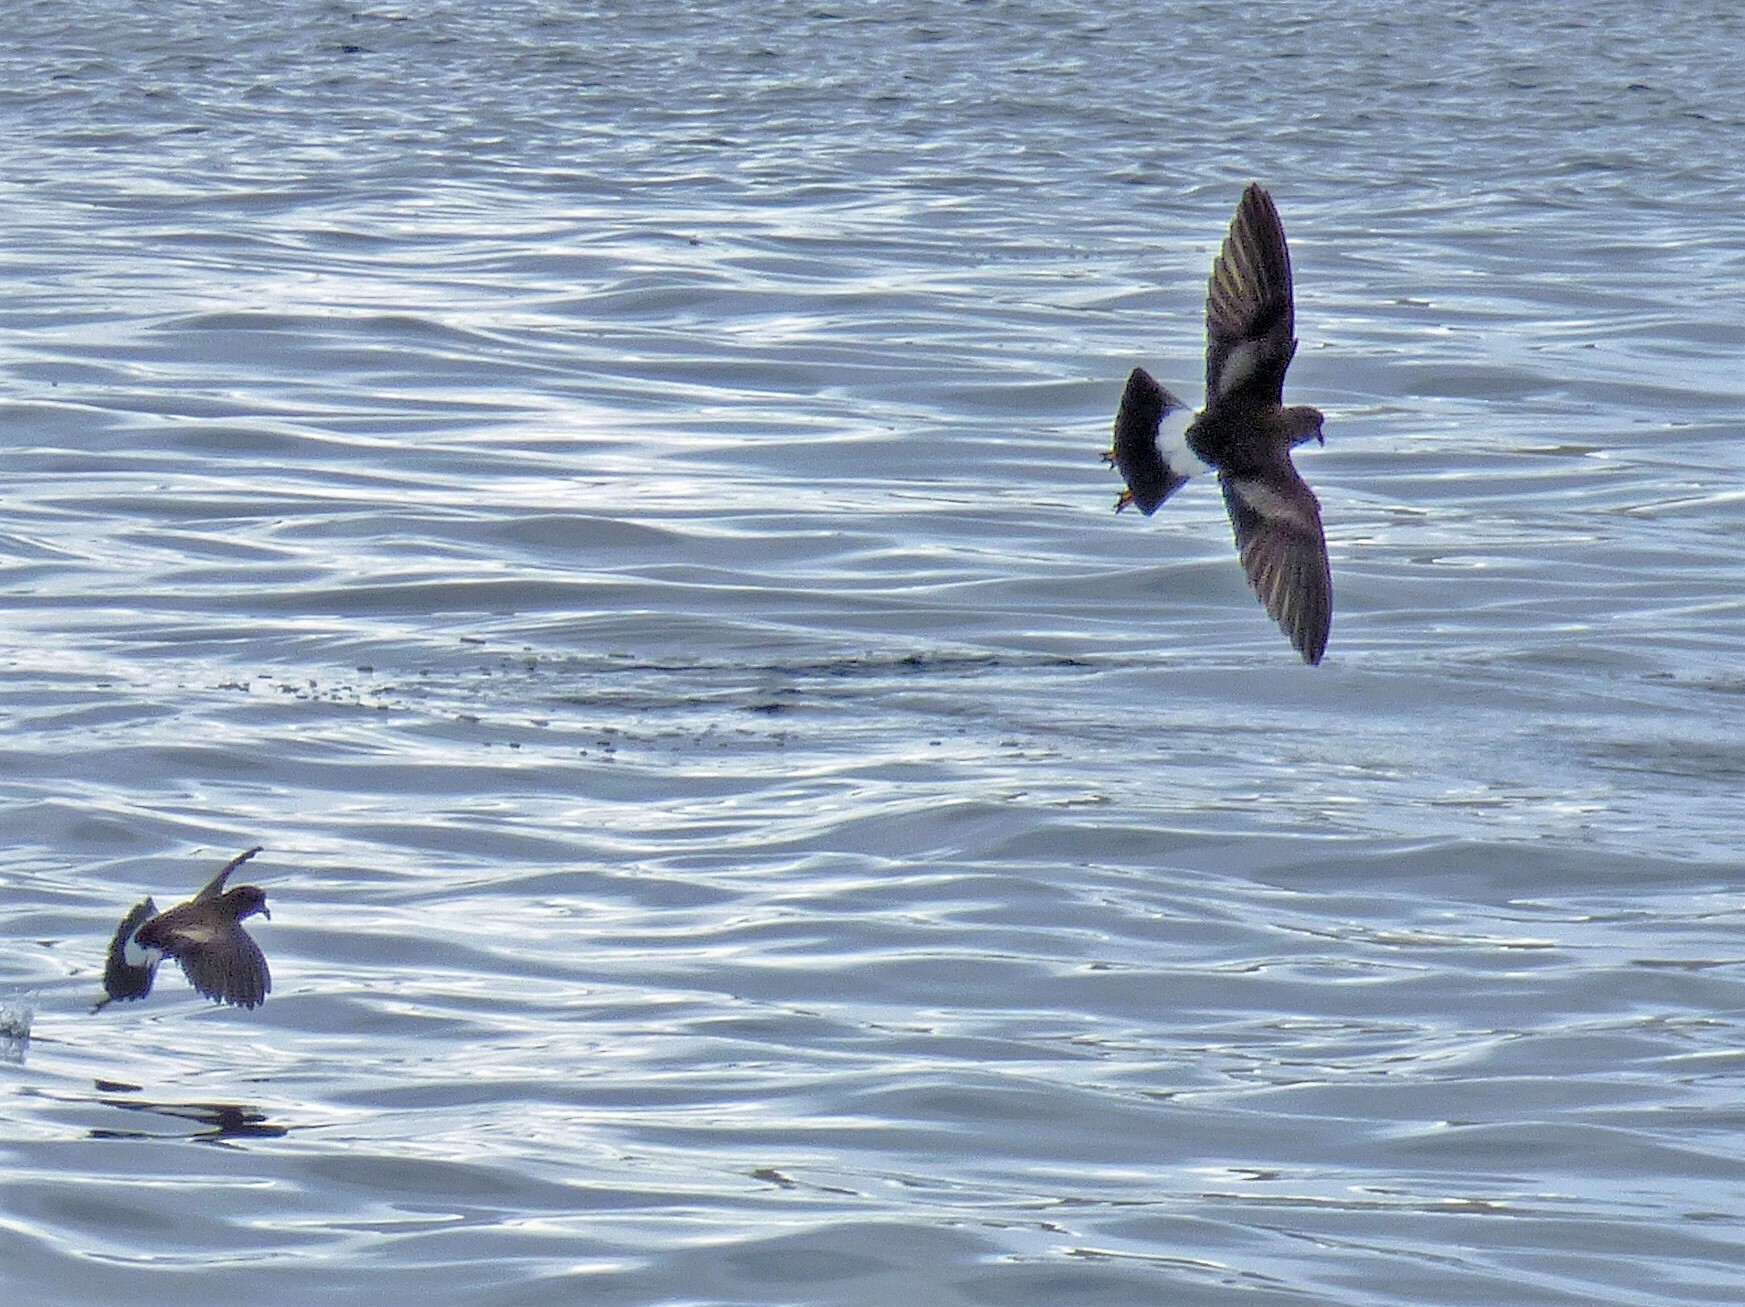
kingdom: Animalia
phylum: Chordata
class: Aves
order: Procellariiformes
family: Hydrobatidae
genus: Oceanites
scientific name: Oceanites oceanicus
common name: Wilson's storm petrel
